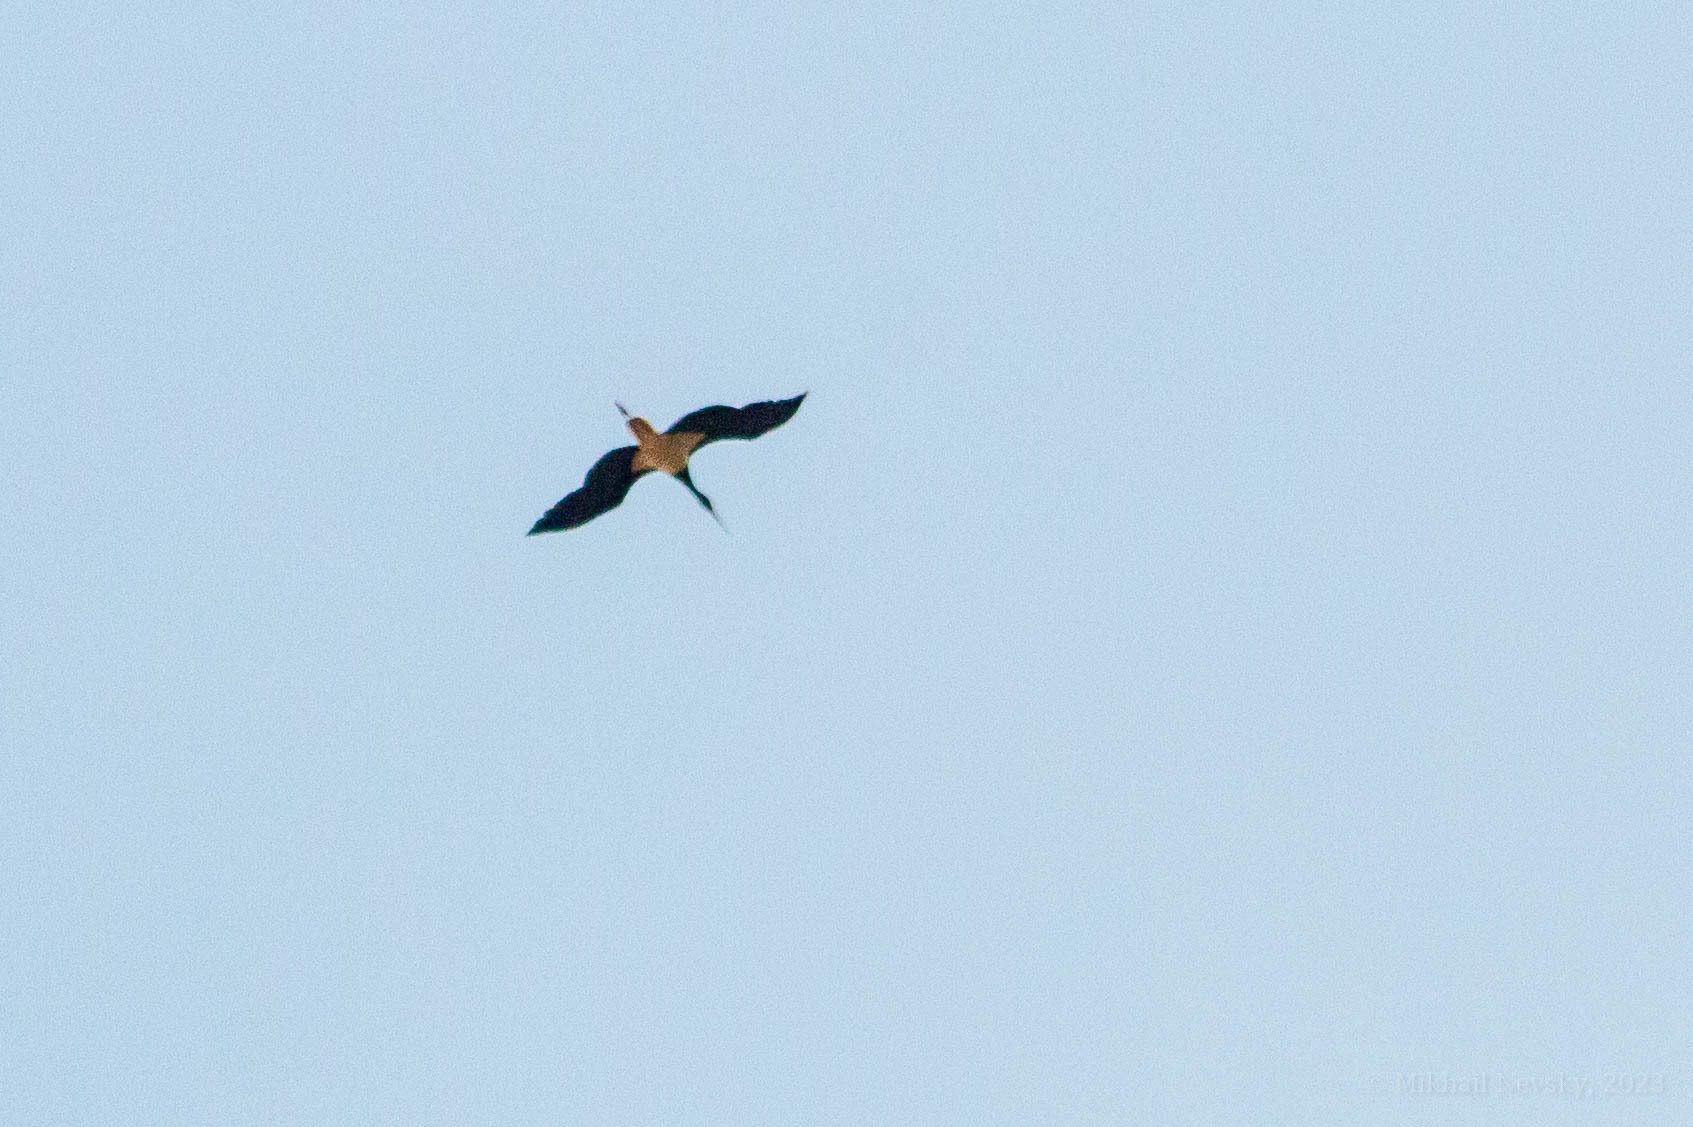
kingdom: Animalia
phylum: Chordata
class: Aves
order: Ciconiiformes
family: Ciconiidae
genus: Ciconia
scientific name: Ciconia nigra
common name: Black stork
